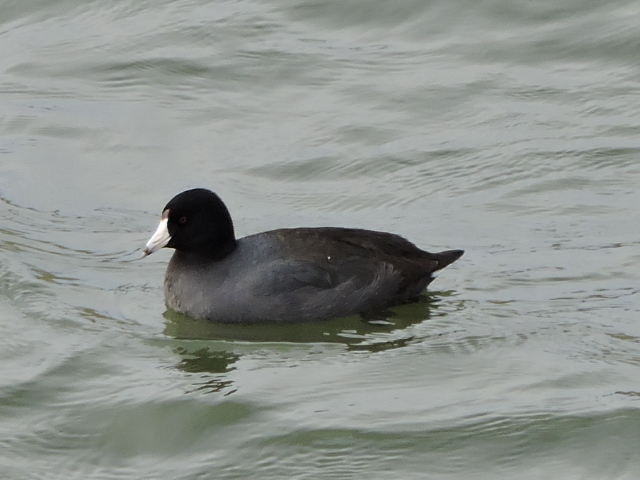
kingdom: Animalia
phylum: Chordata
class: Aves
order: Gruiformes
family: Rallidae
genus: Fulica
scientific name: Fulica americana
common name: American coot
